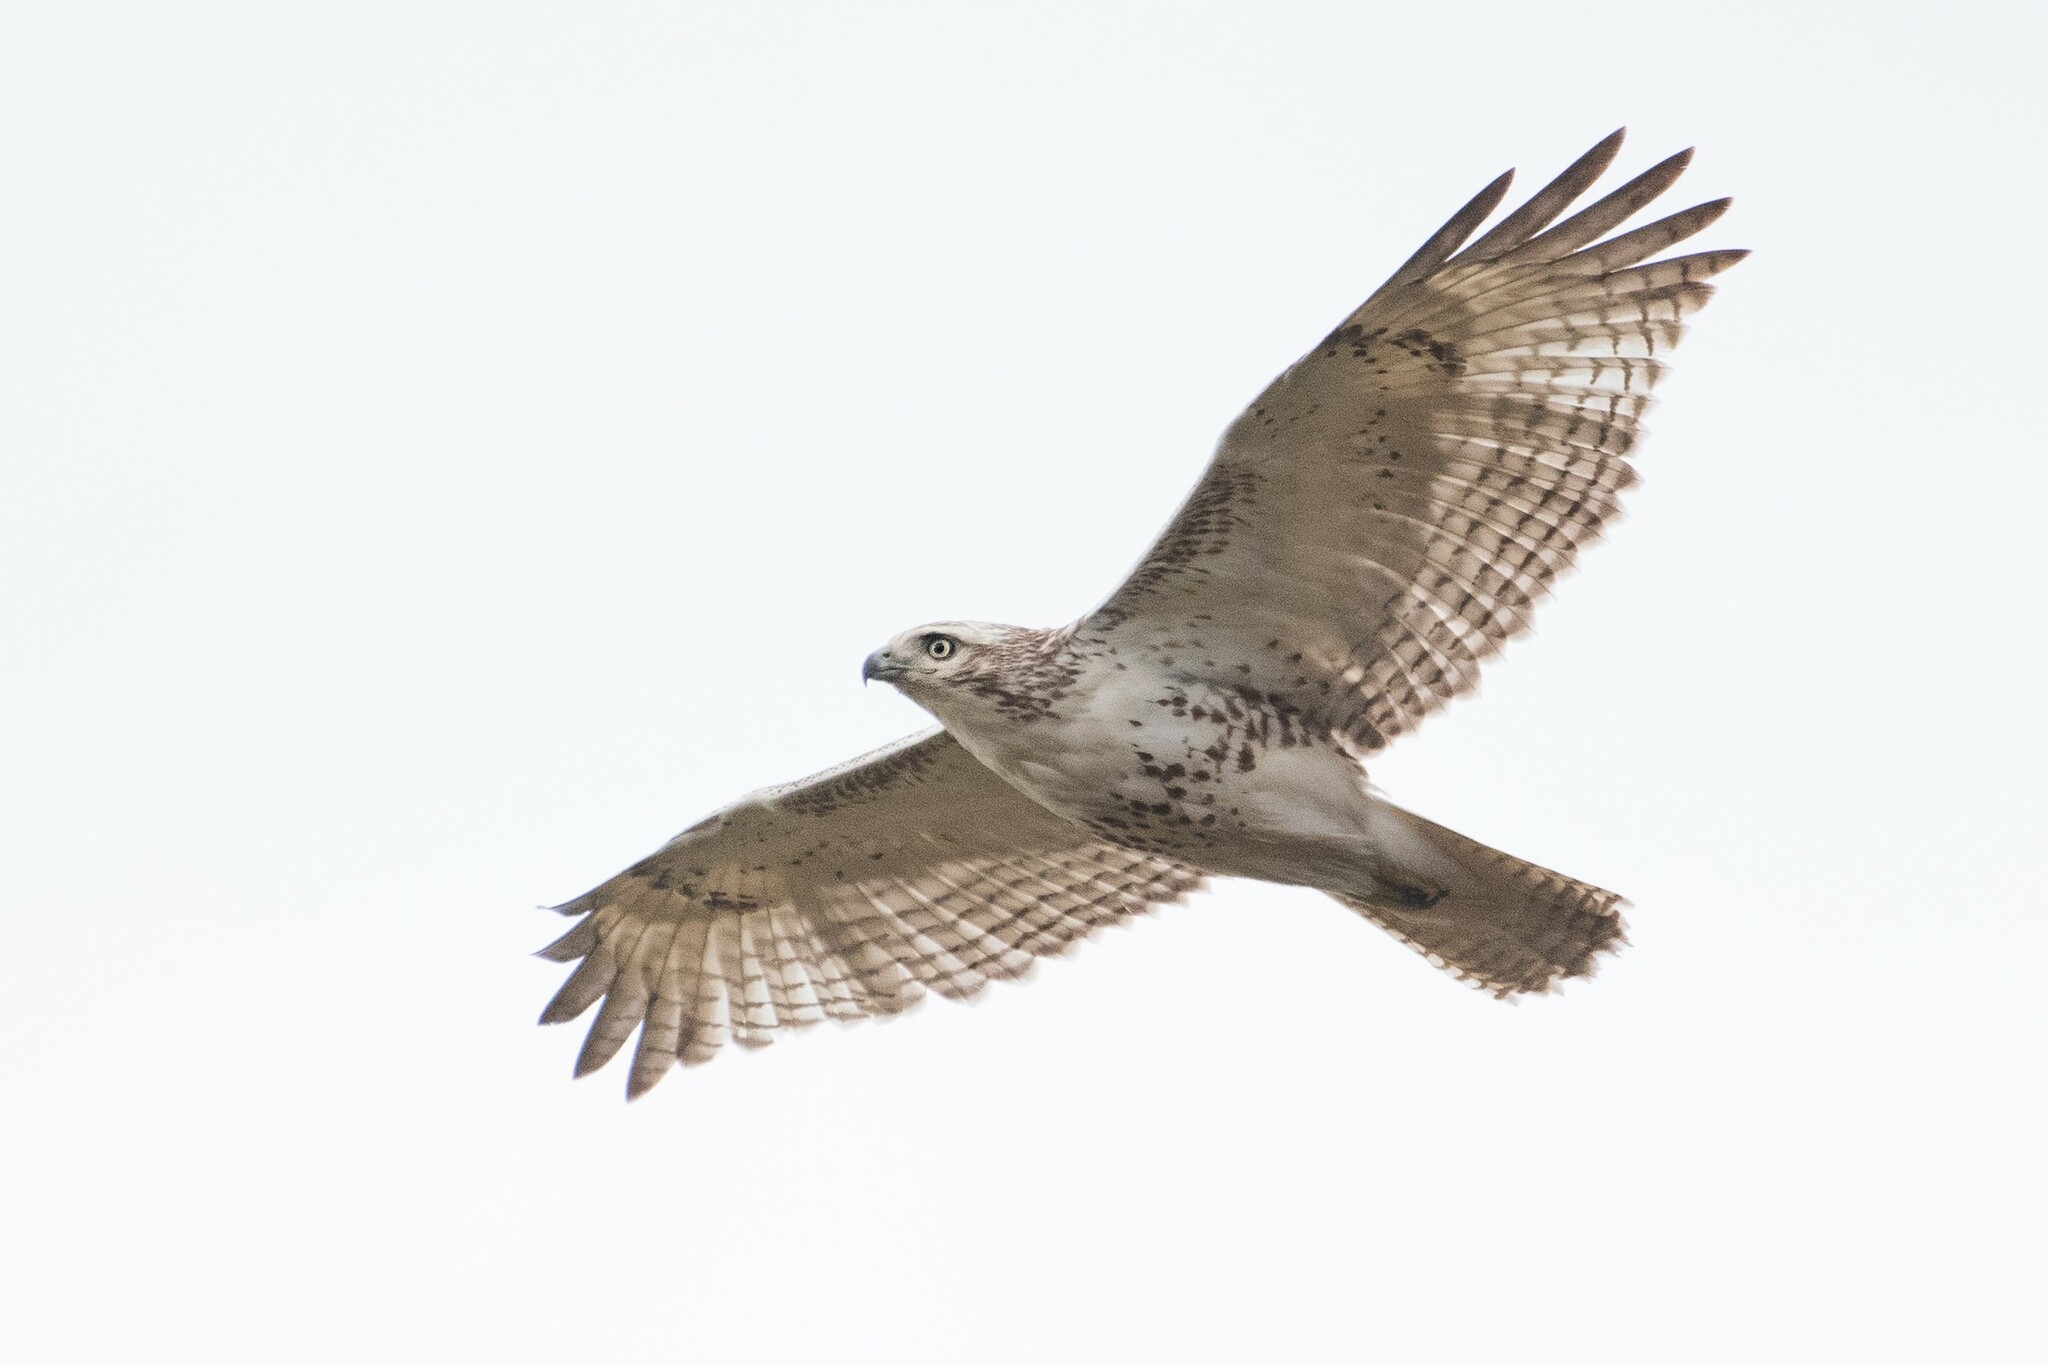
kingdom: Animalia
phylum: Chordata
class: Aves
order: Accipitriformes
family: Accipitridae
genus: Buteo
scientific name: Buteo jamaicensis
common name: Red-tailed hawk
